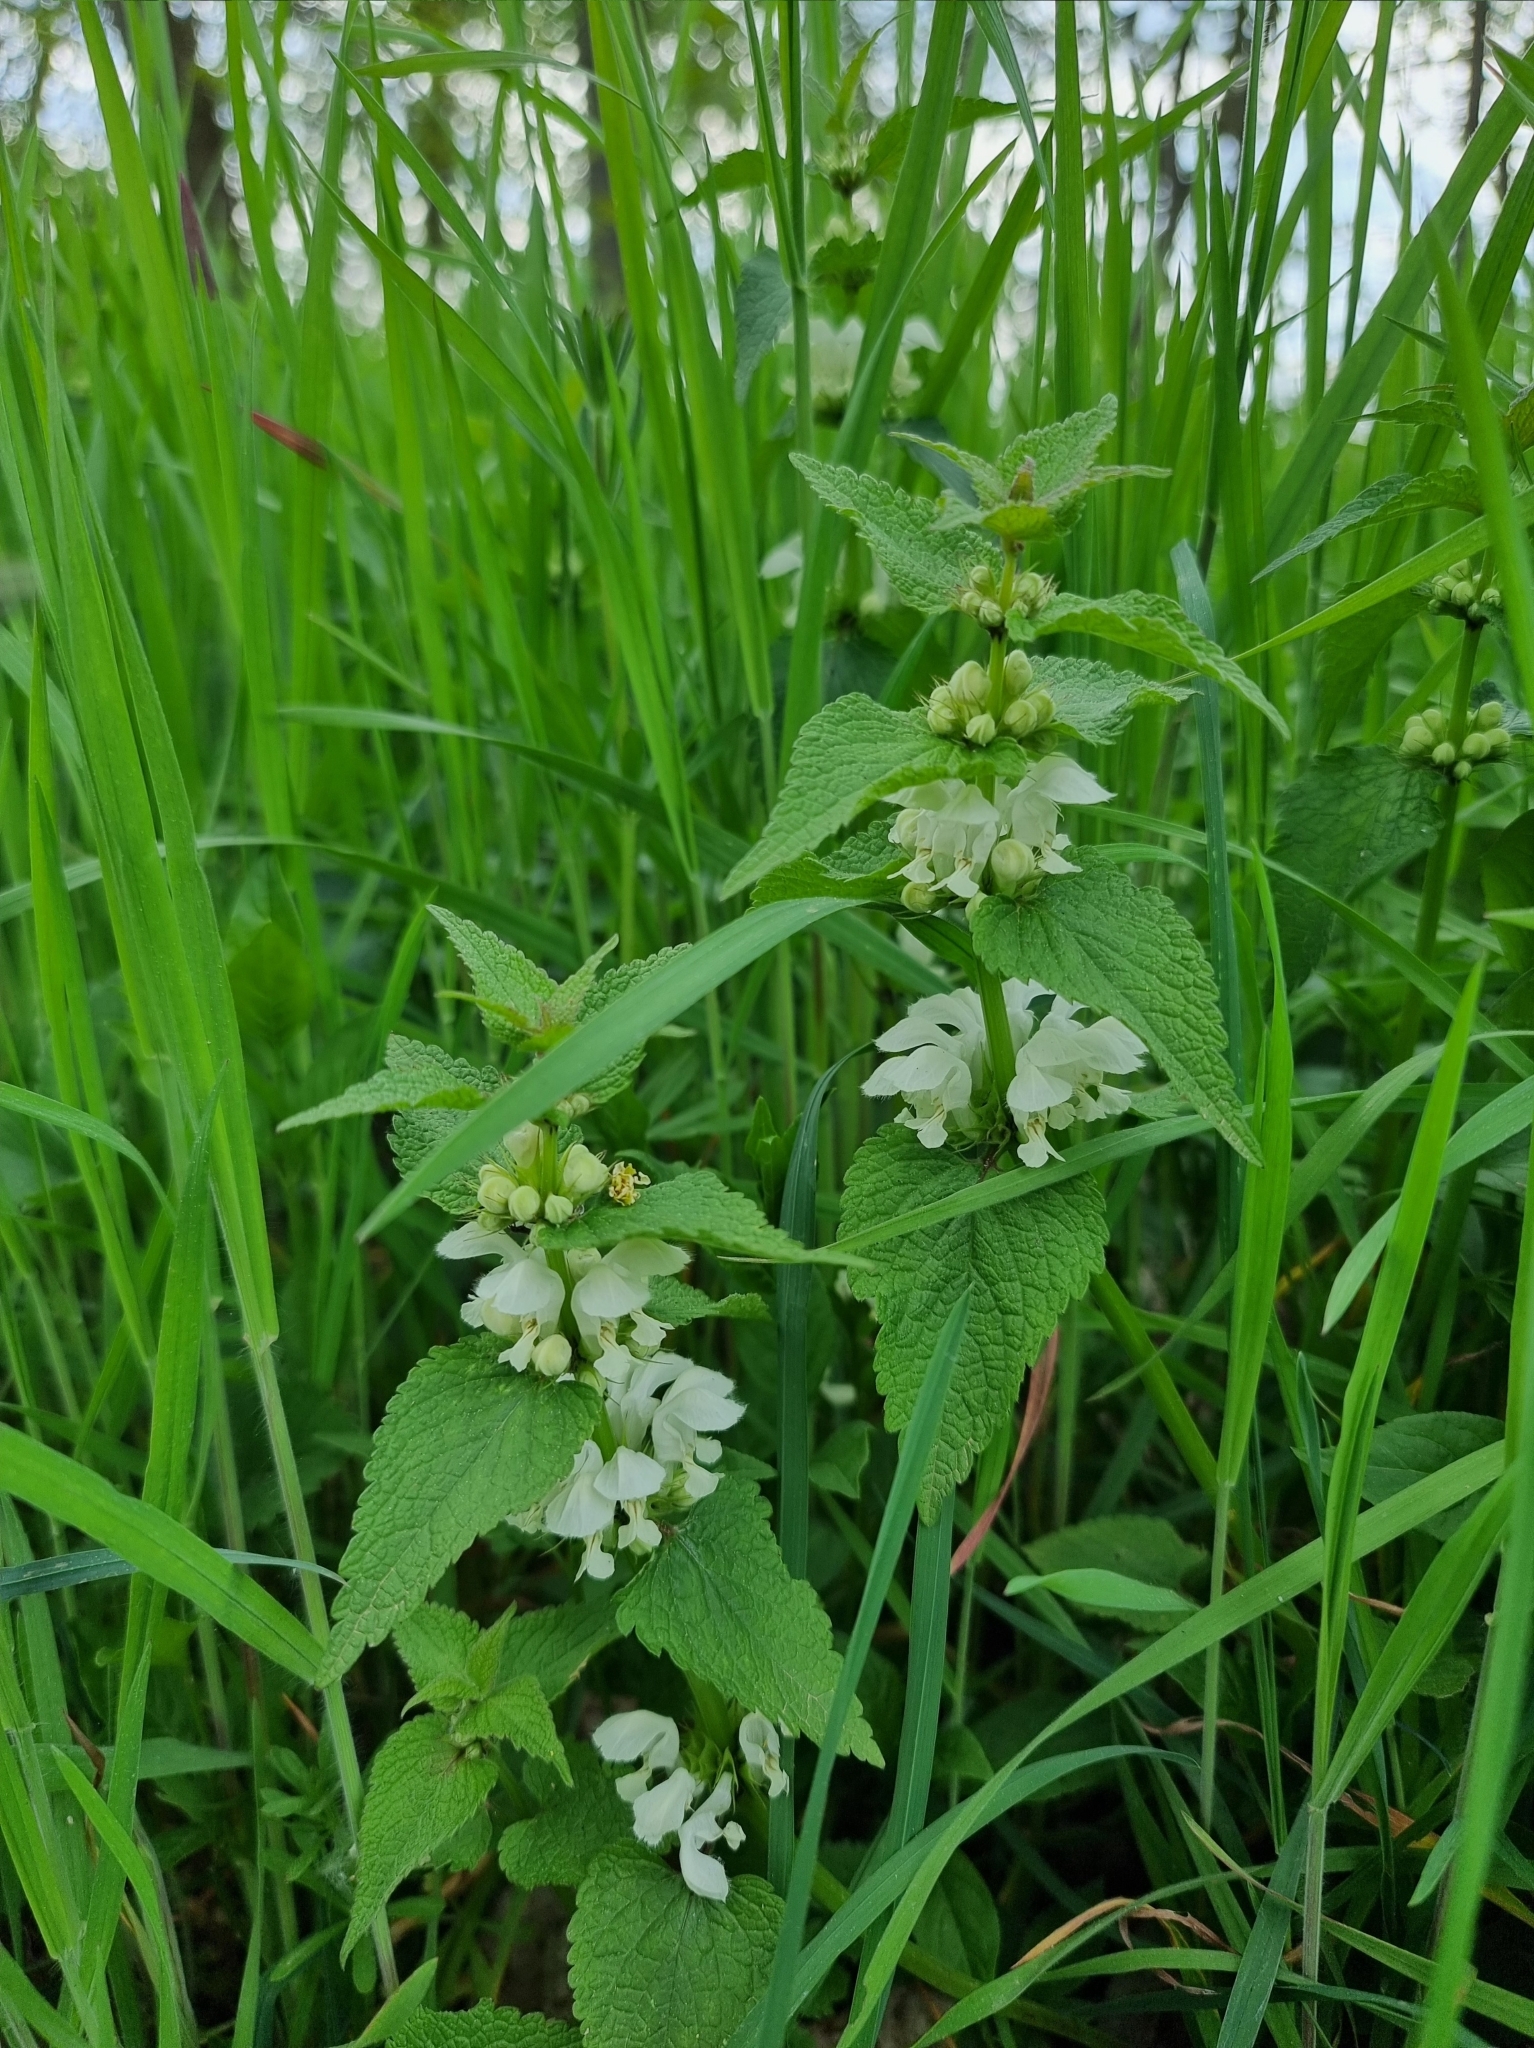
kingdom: Plantae
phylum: Tracheophyta
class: Magnoliopsida
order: Lamiales
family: Lamiaceae
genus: Lamium
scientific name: Lamium album
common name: White dead-nettle
